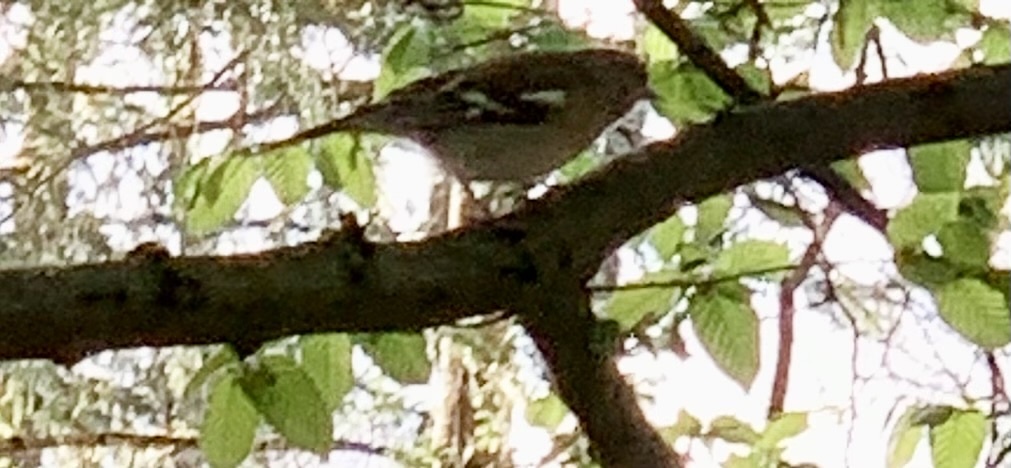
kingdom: Animalia
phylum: Chordata
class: Aves
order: Passeriformes
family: Fringillidae
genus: Fringilla
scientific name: Fringilla coelebs
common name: Common chaffinch
